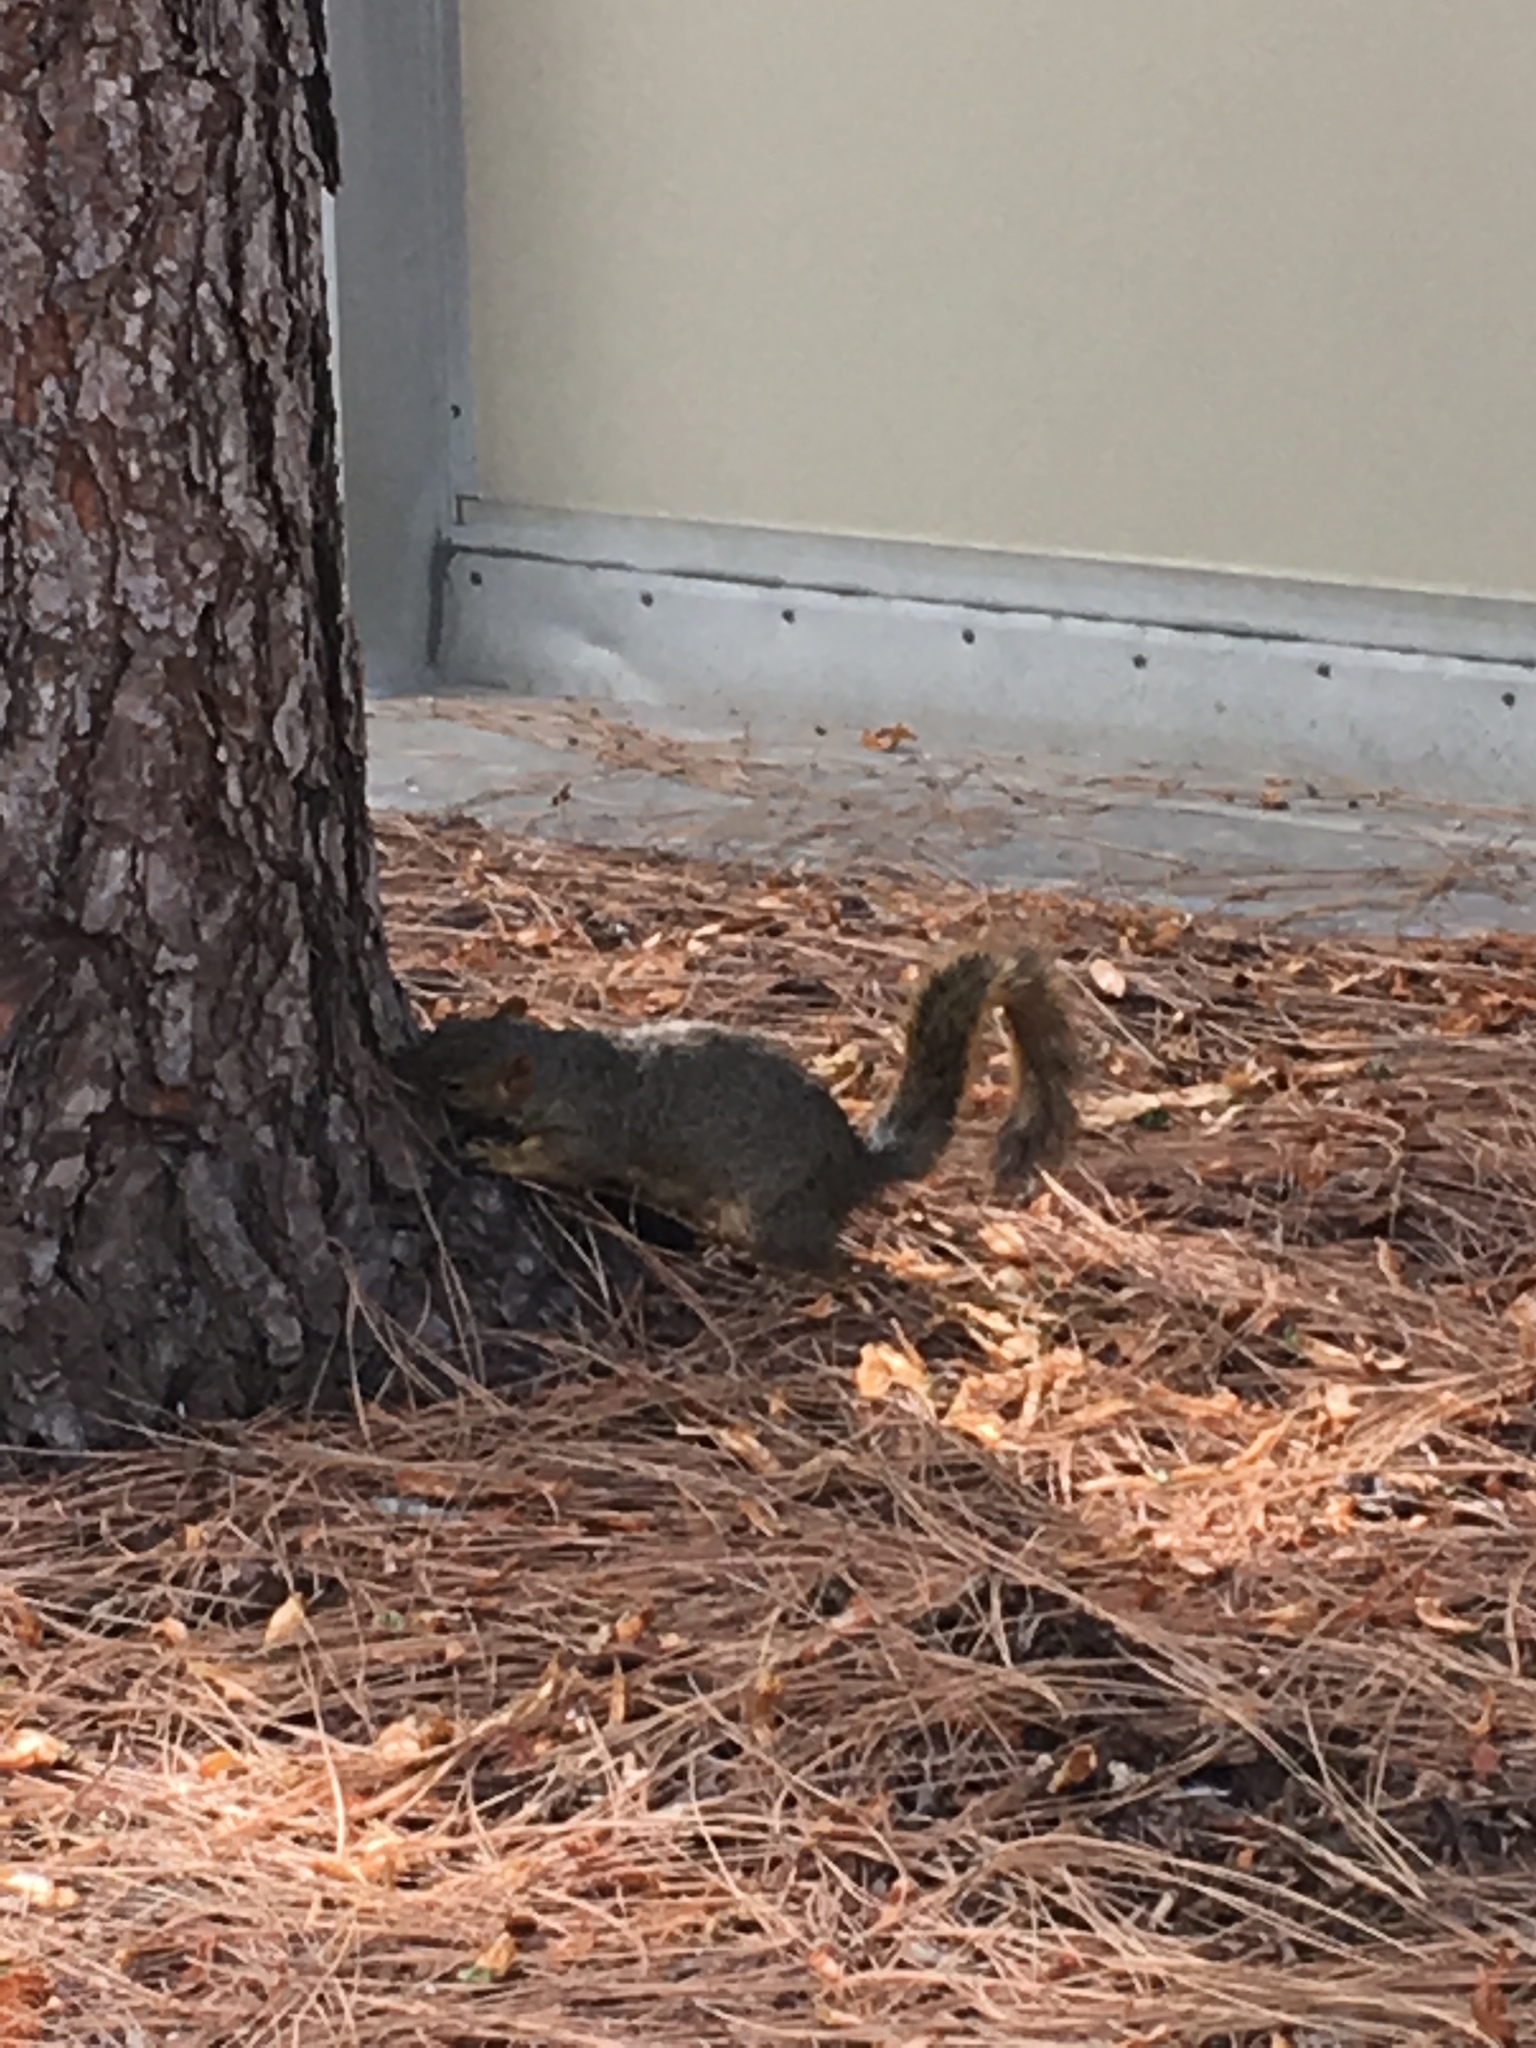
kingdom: Animalia
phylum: Chordata
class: Mammalia
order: Rodentia
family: Sciuridae
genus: Sciurus
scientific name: Sciurus niger
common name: Fox squirrel
